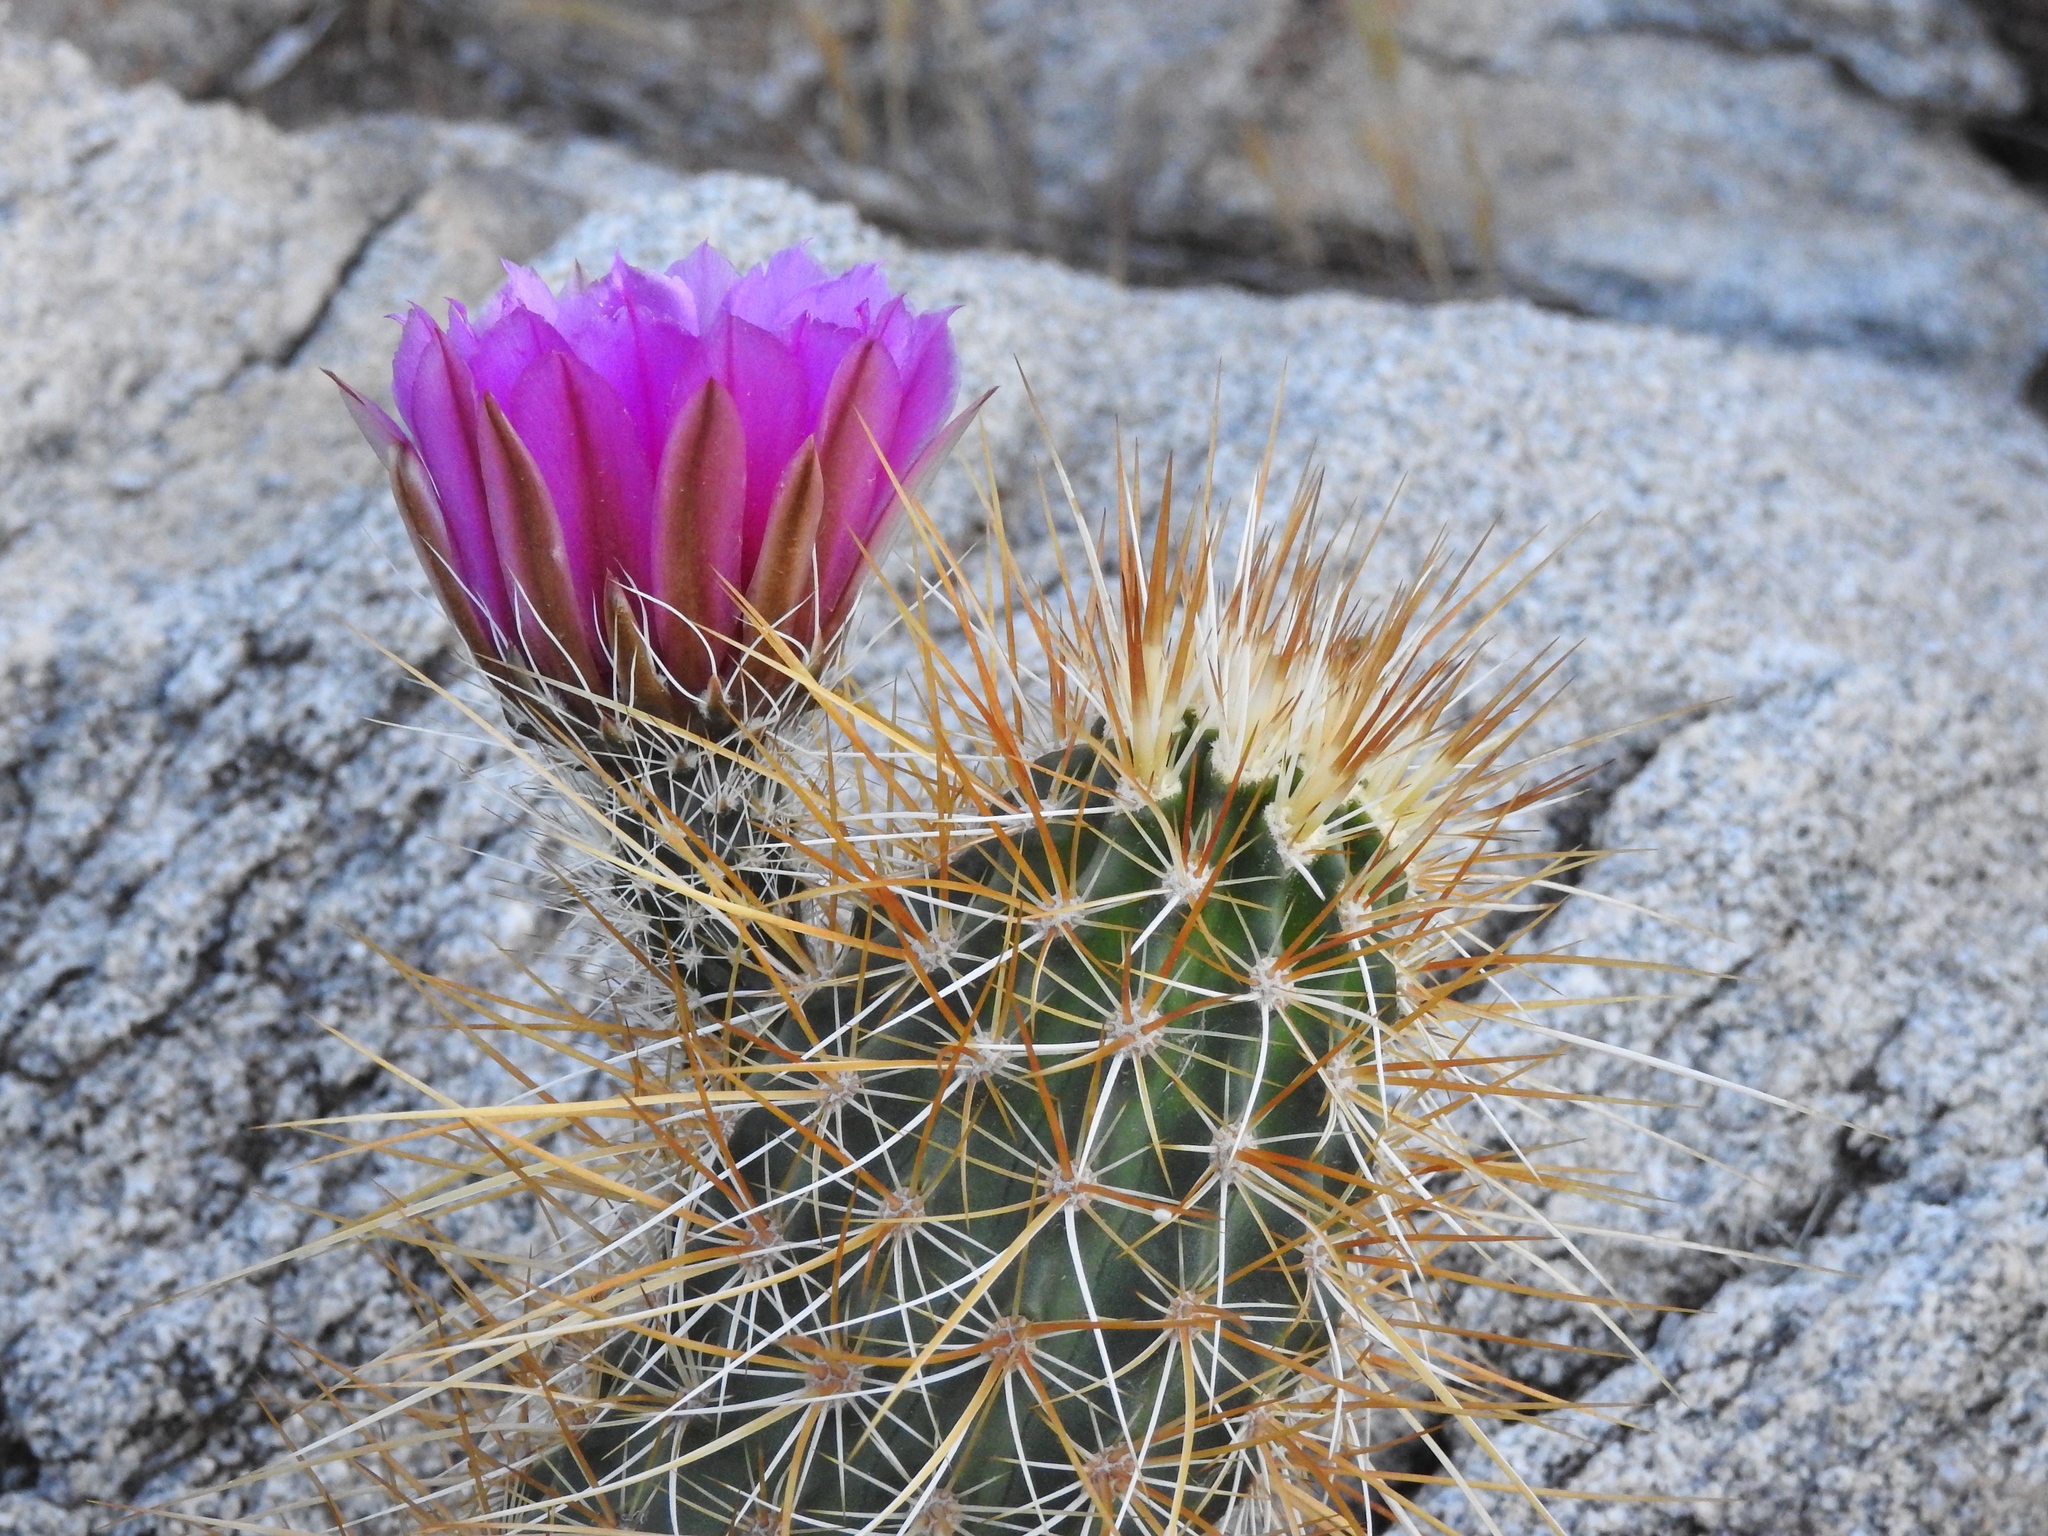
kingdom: Plantae
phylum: Tracheophyta
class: Magnoliopsida
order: Caryophyllales
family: Cactaceae
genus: Echinocereus
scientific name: Echinocereus engelmannii
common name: Engelmann's hedgehog cactus
